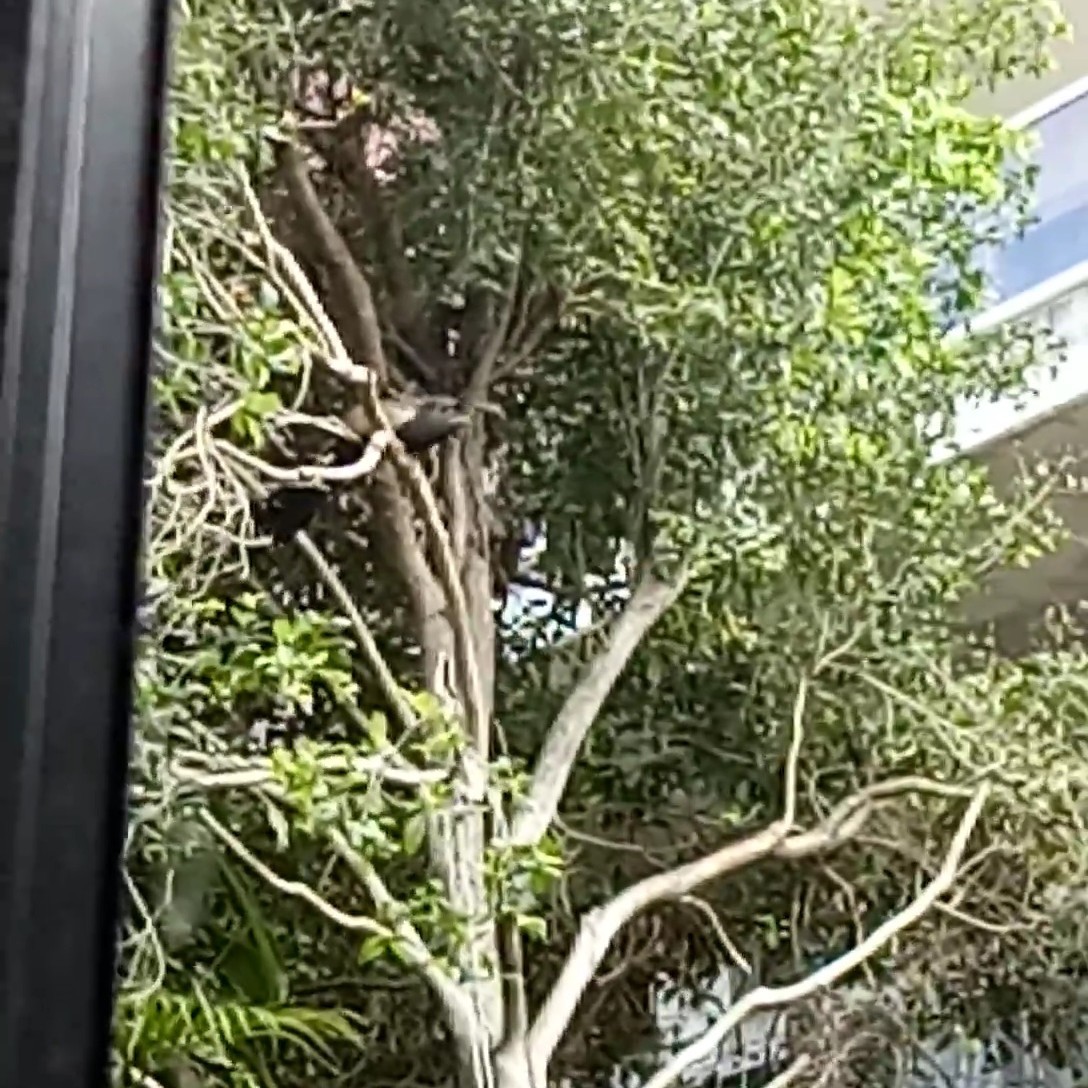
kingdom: Animalia
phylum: Chordata
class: Aves
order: Cuculiformes
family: Cuculidae
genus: Centropus
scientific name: Centropus phasianinus
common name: Pheasant coucal
